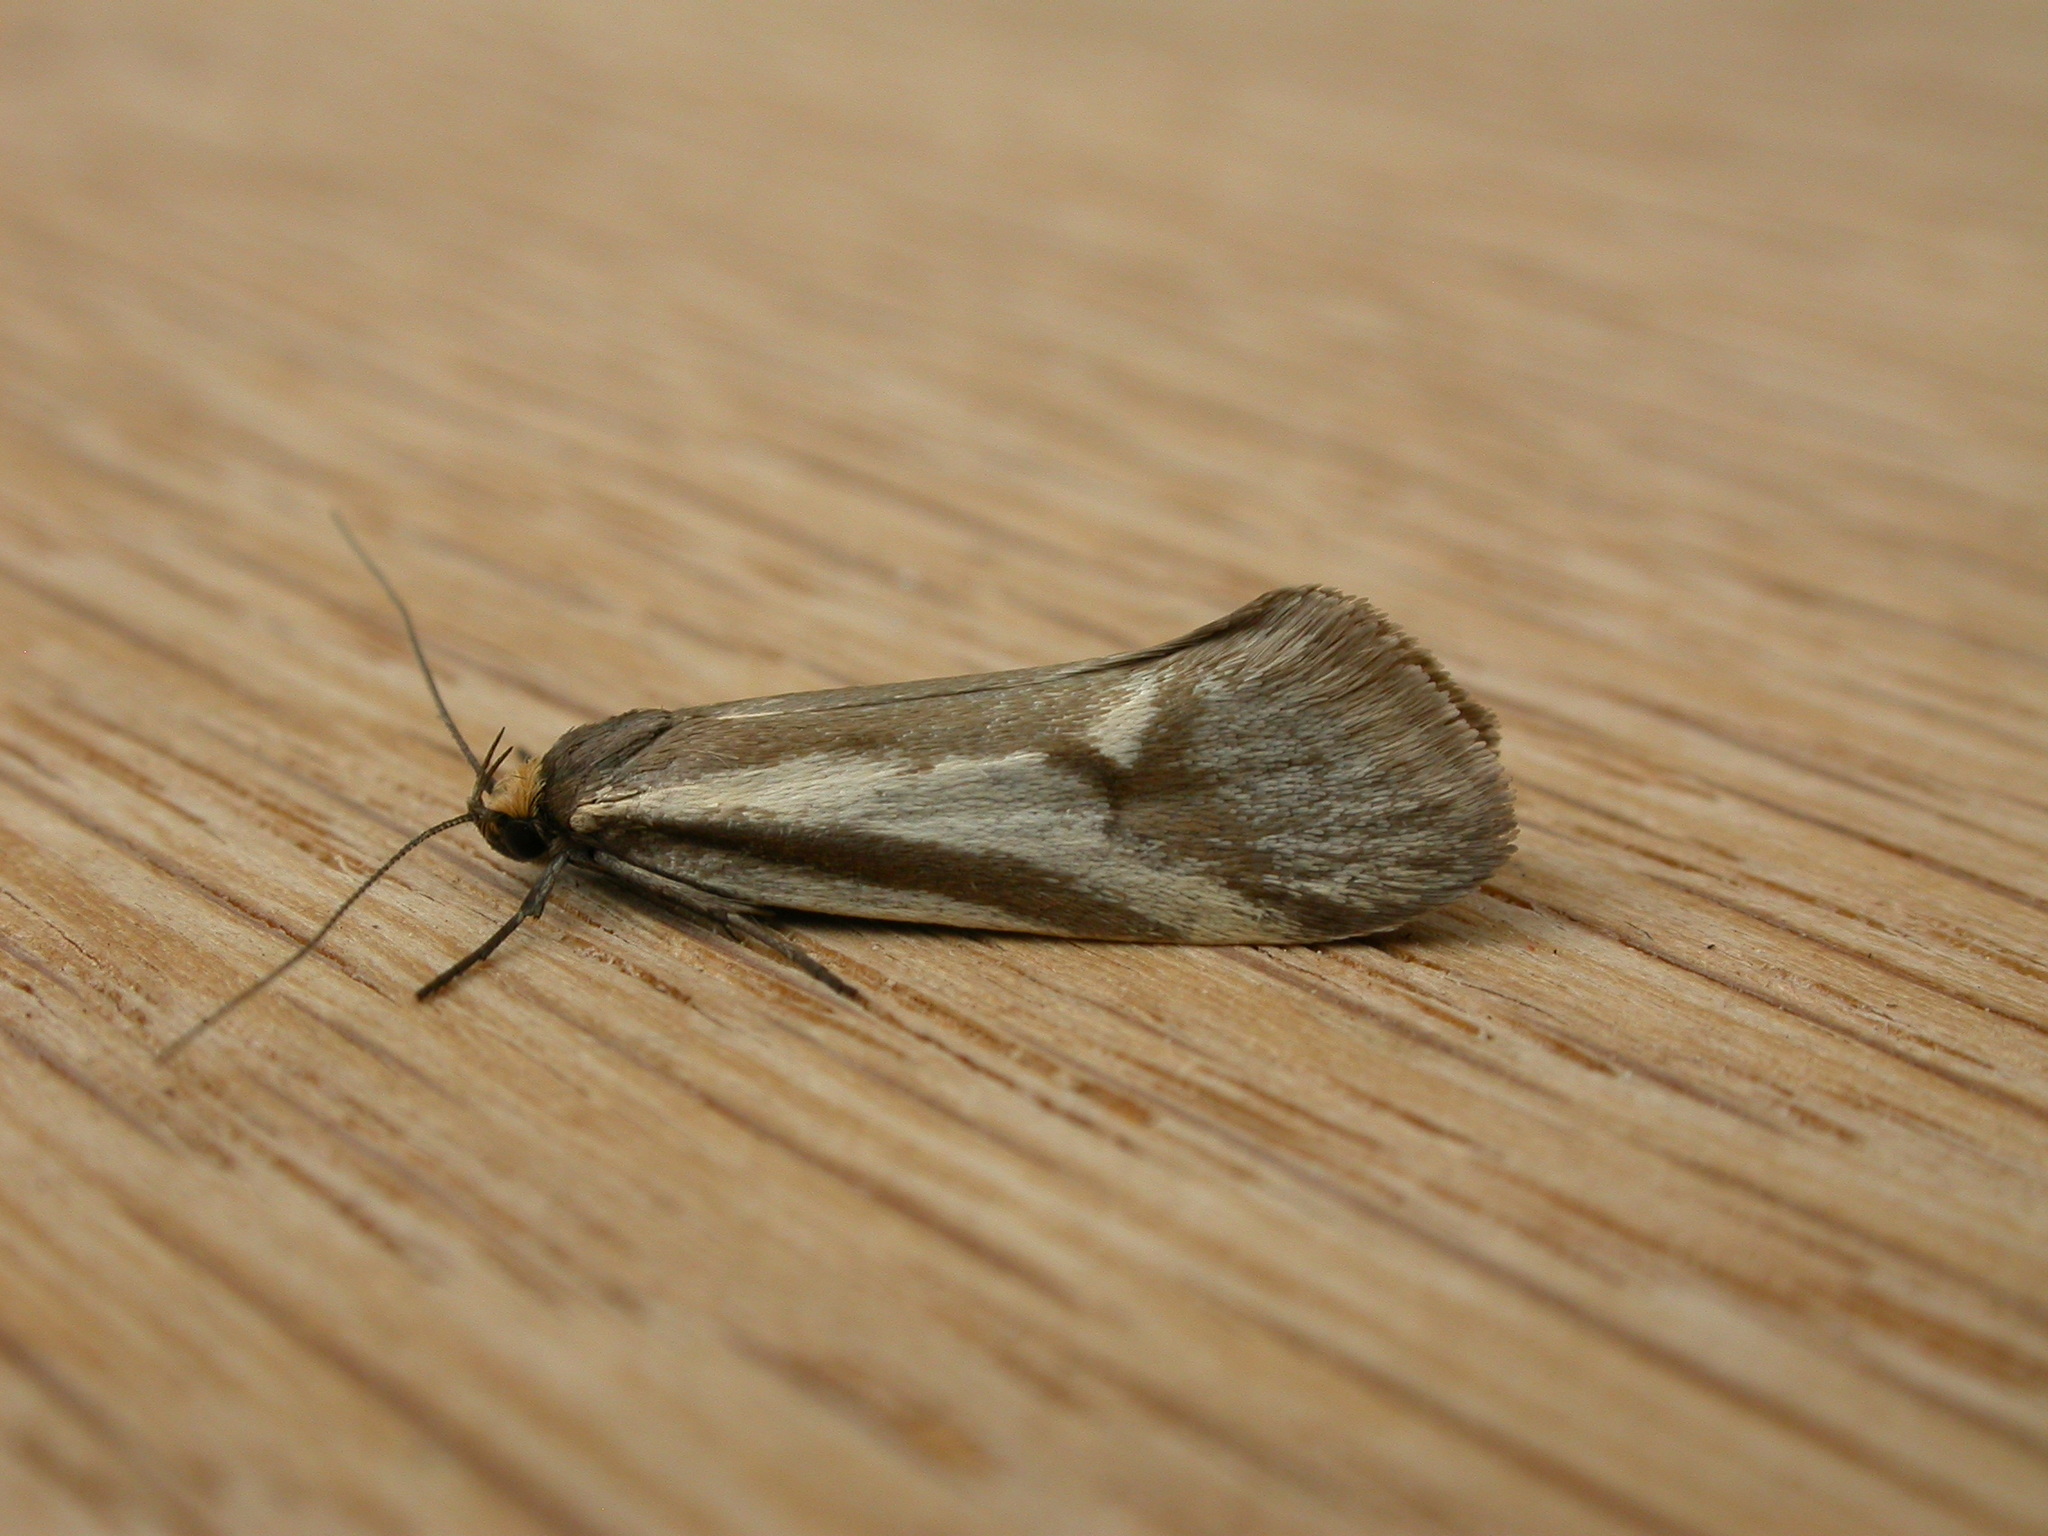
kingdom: Animalia
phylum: Arthropoda
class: Insecta
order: Lepidoptera
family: Oecophoridae
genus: Philobota
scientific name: Philobota ellenella
